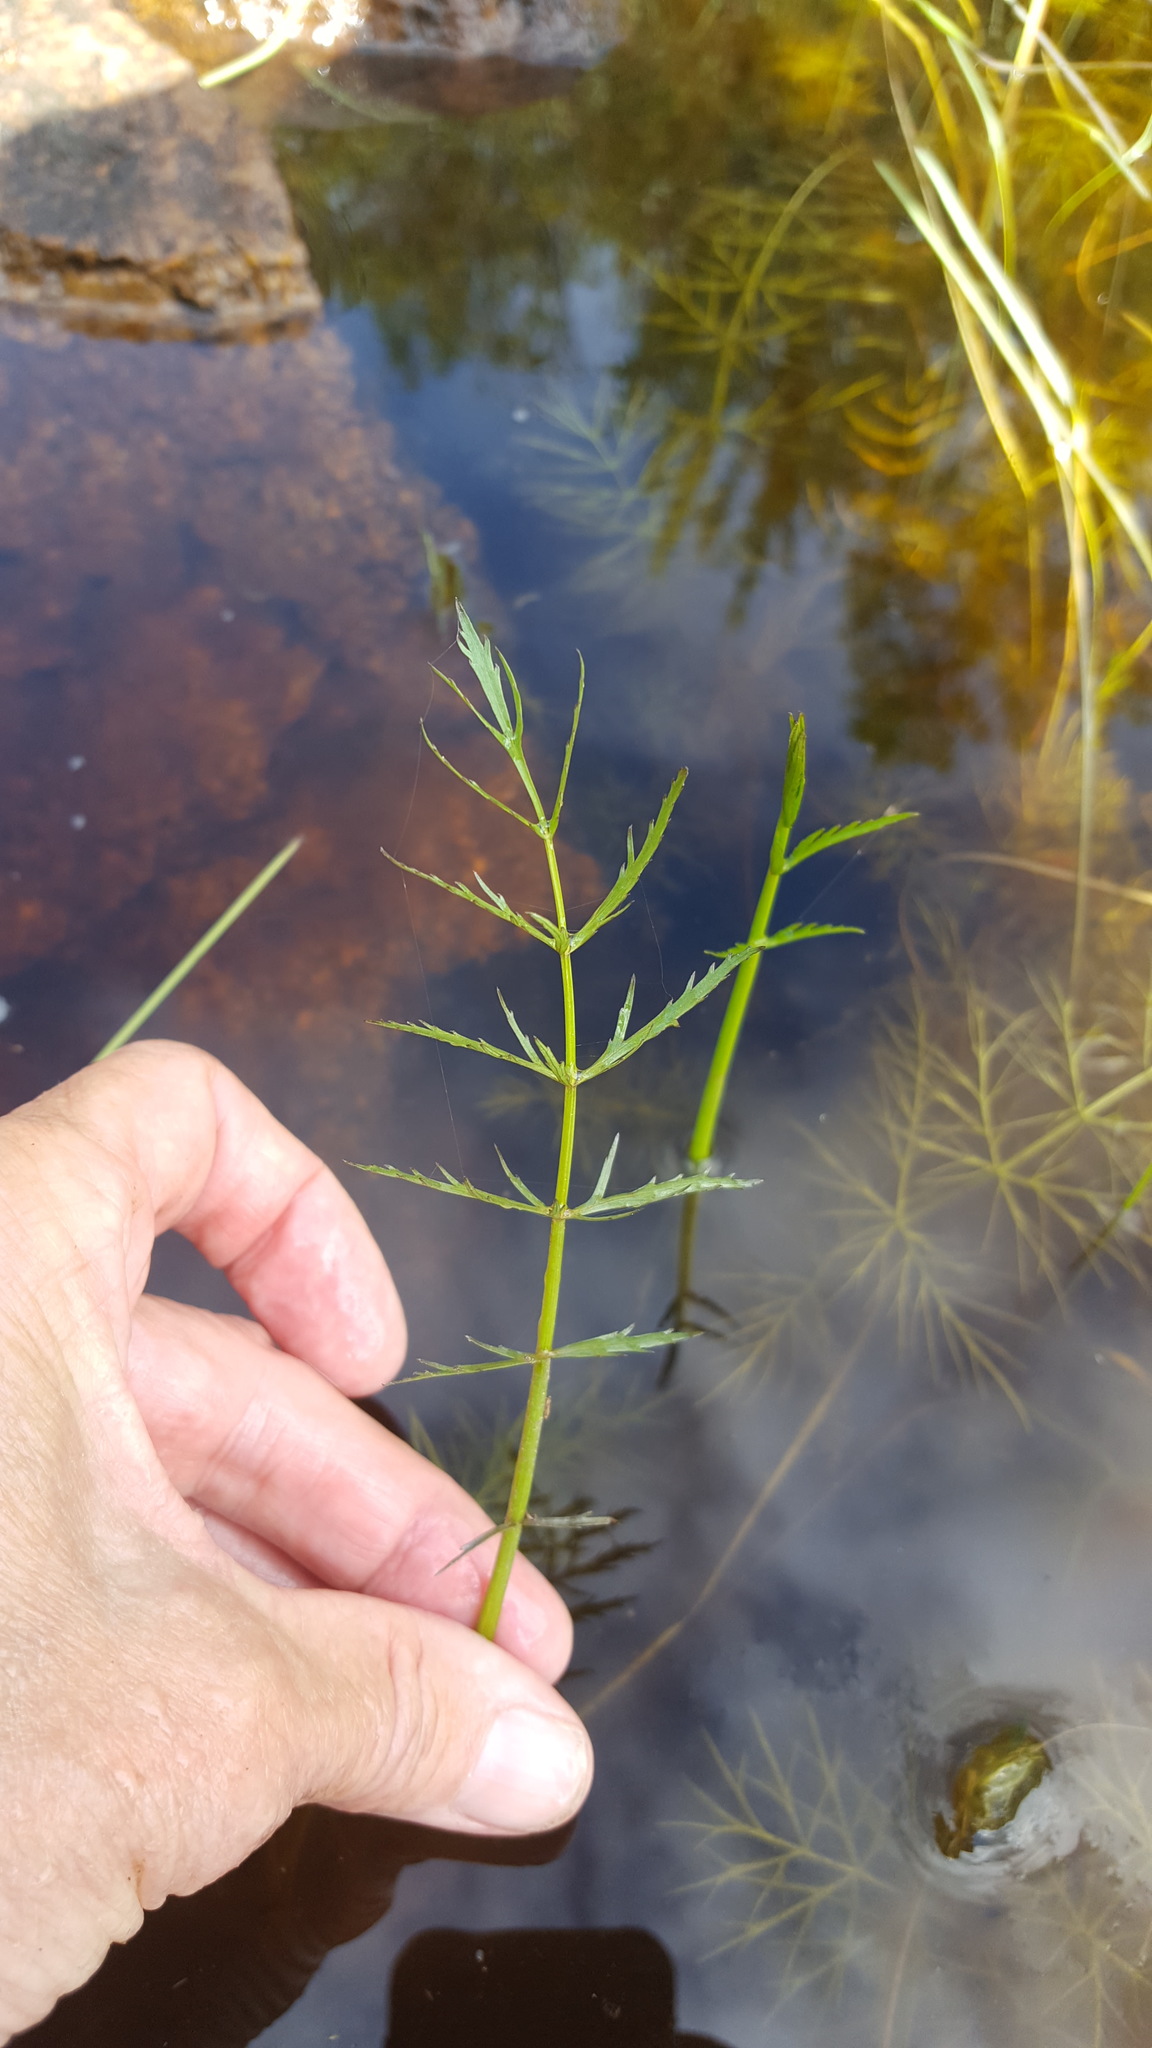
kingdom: Plantae
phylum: Tracheophyta
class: Magnoliopsida
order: Apiales
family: Apiaceae
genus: Sium
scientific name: Sium suave
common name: Hemlock water-parsnip
